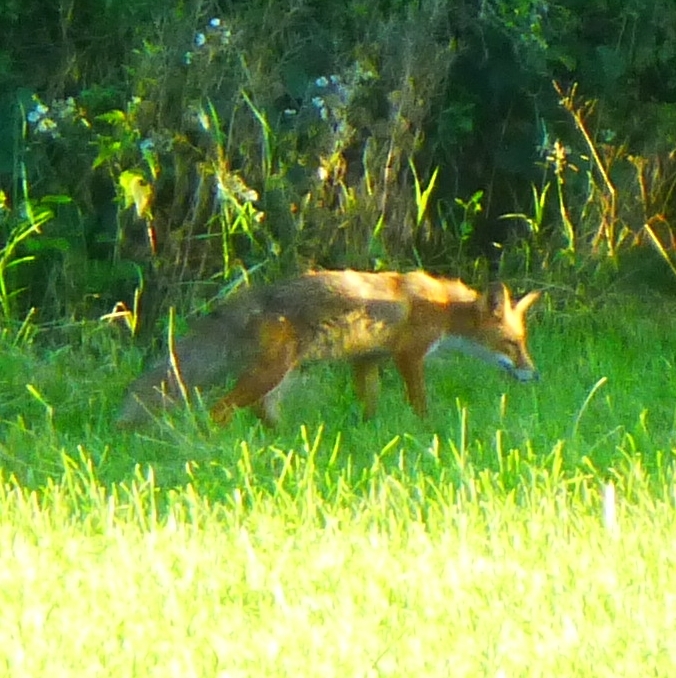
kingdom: Animalia
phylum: Chordata
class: Mammalia
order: Carnivora
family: Canidae
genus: Vulpes
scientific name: Vulpes vulpes
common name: Red fox
